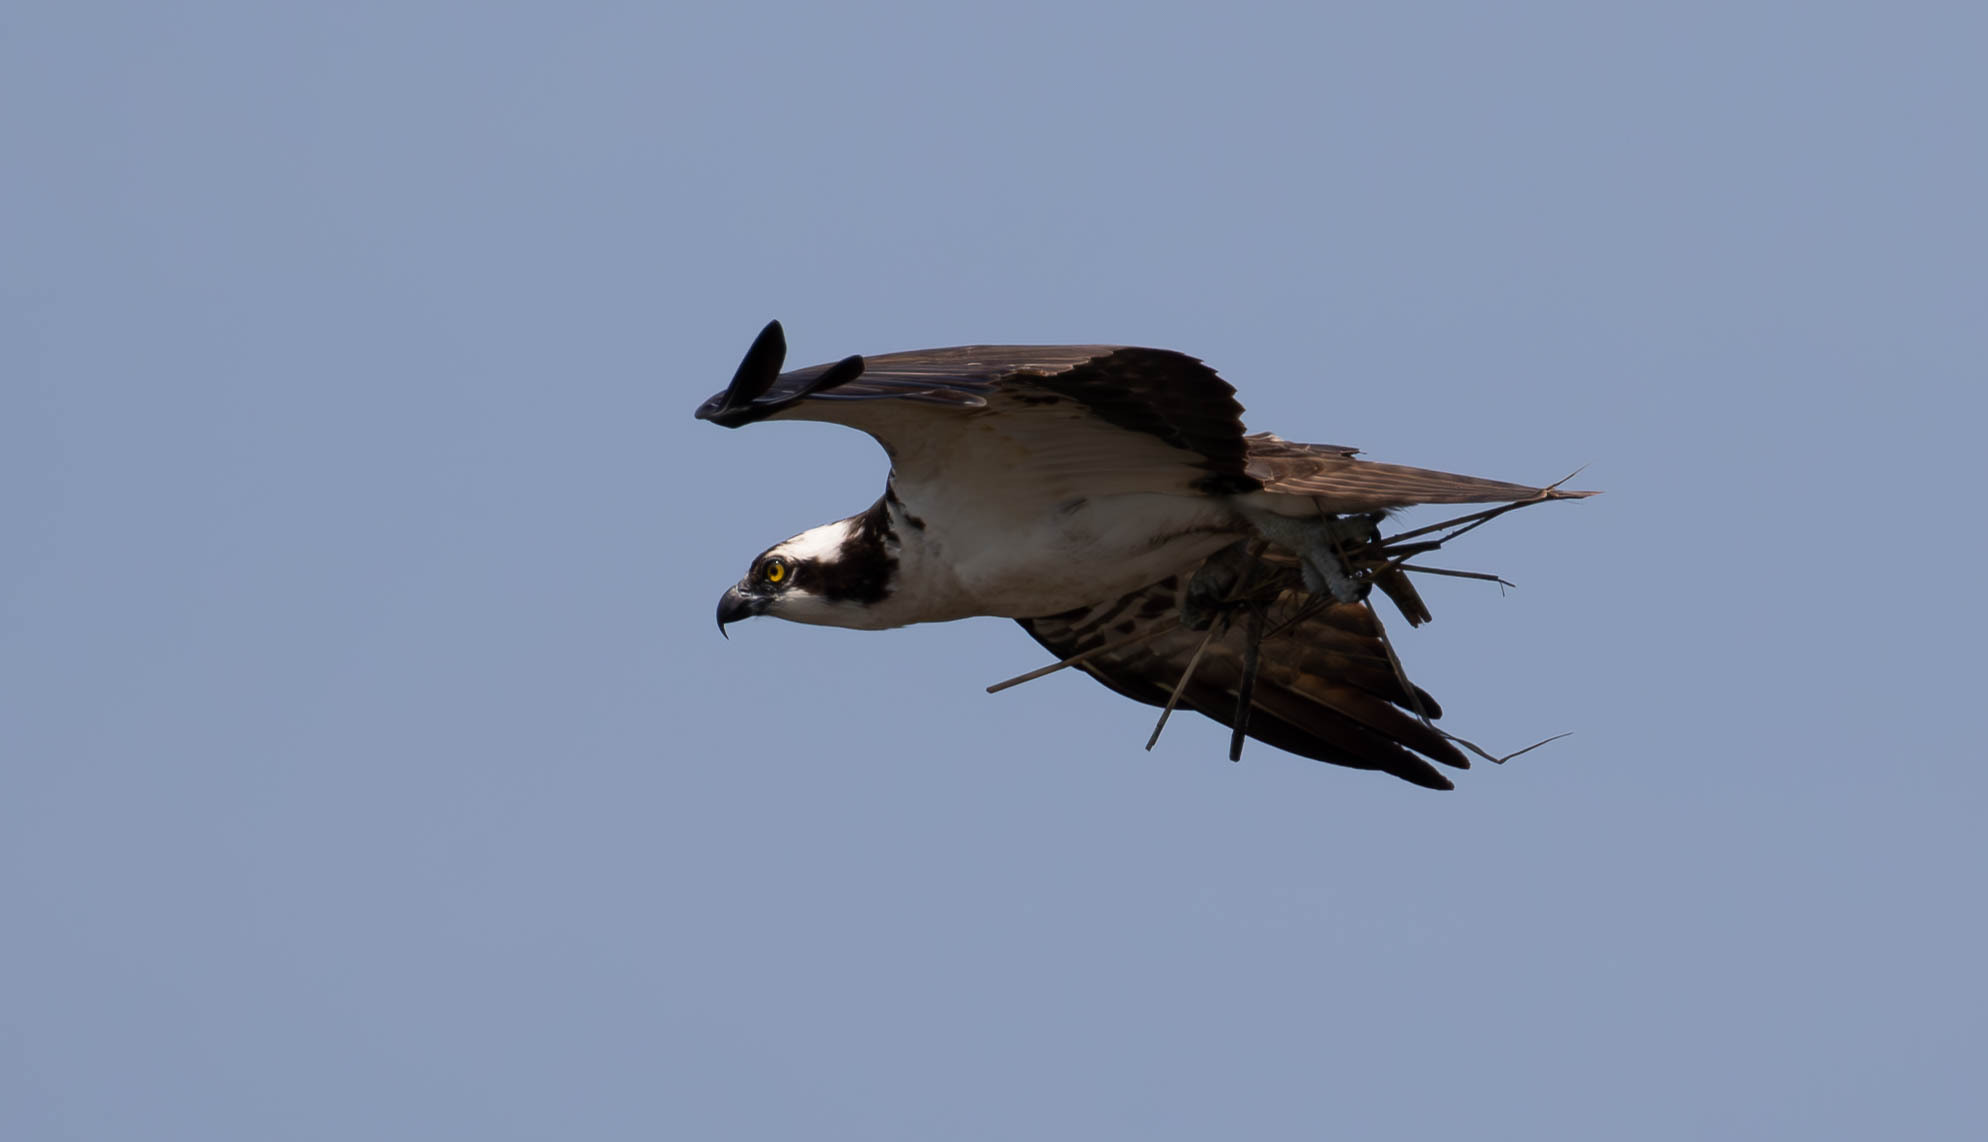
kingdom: Animalia
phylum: Chordata
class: Aves
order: Accipitriformes
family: Pandionidae
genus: Pandion
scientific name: Pandion haliaetus
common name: Osprey
